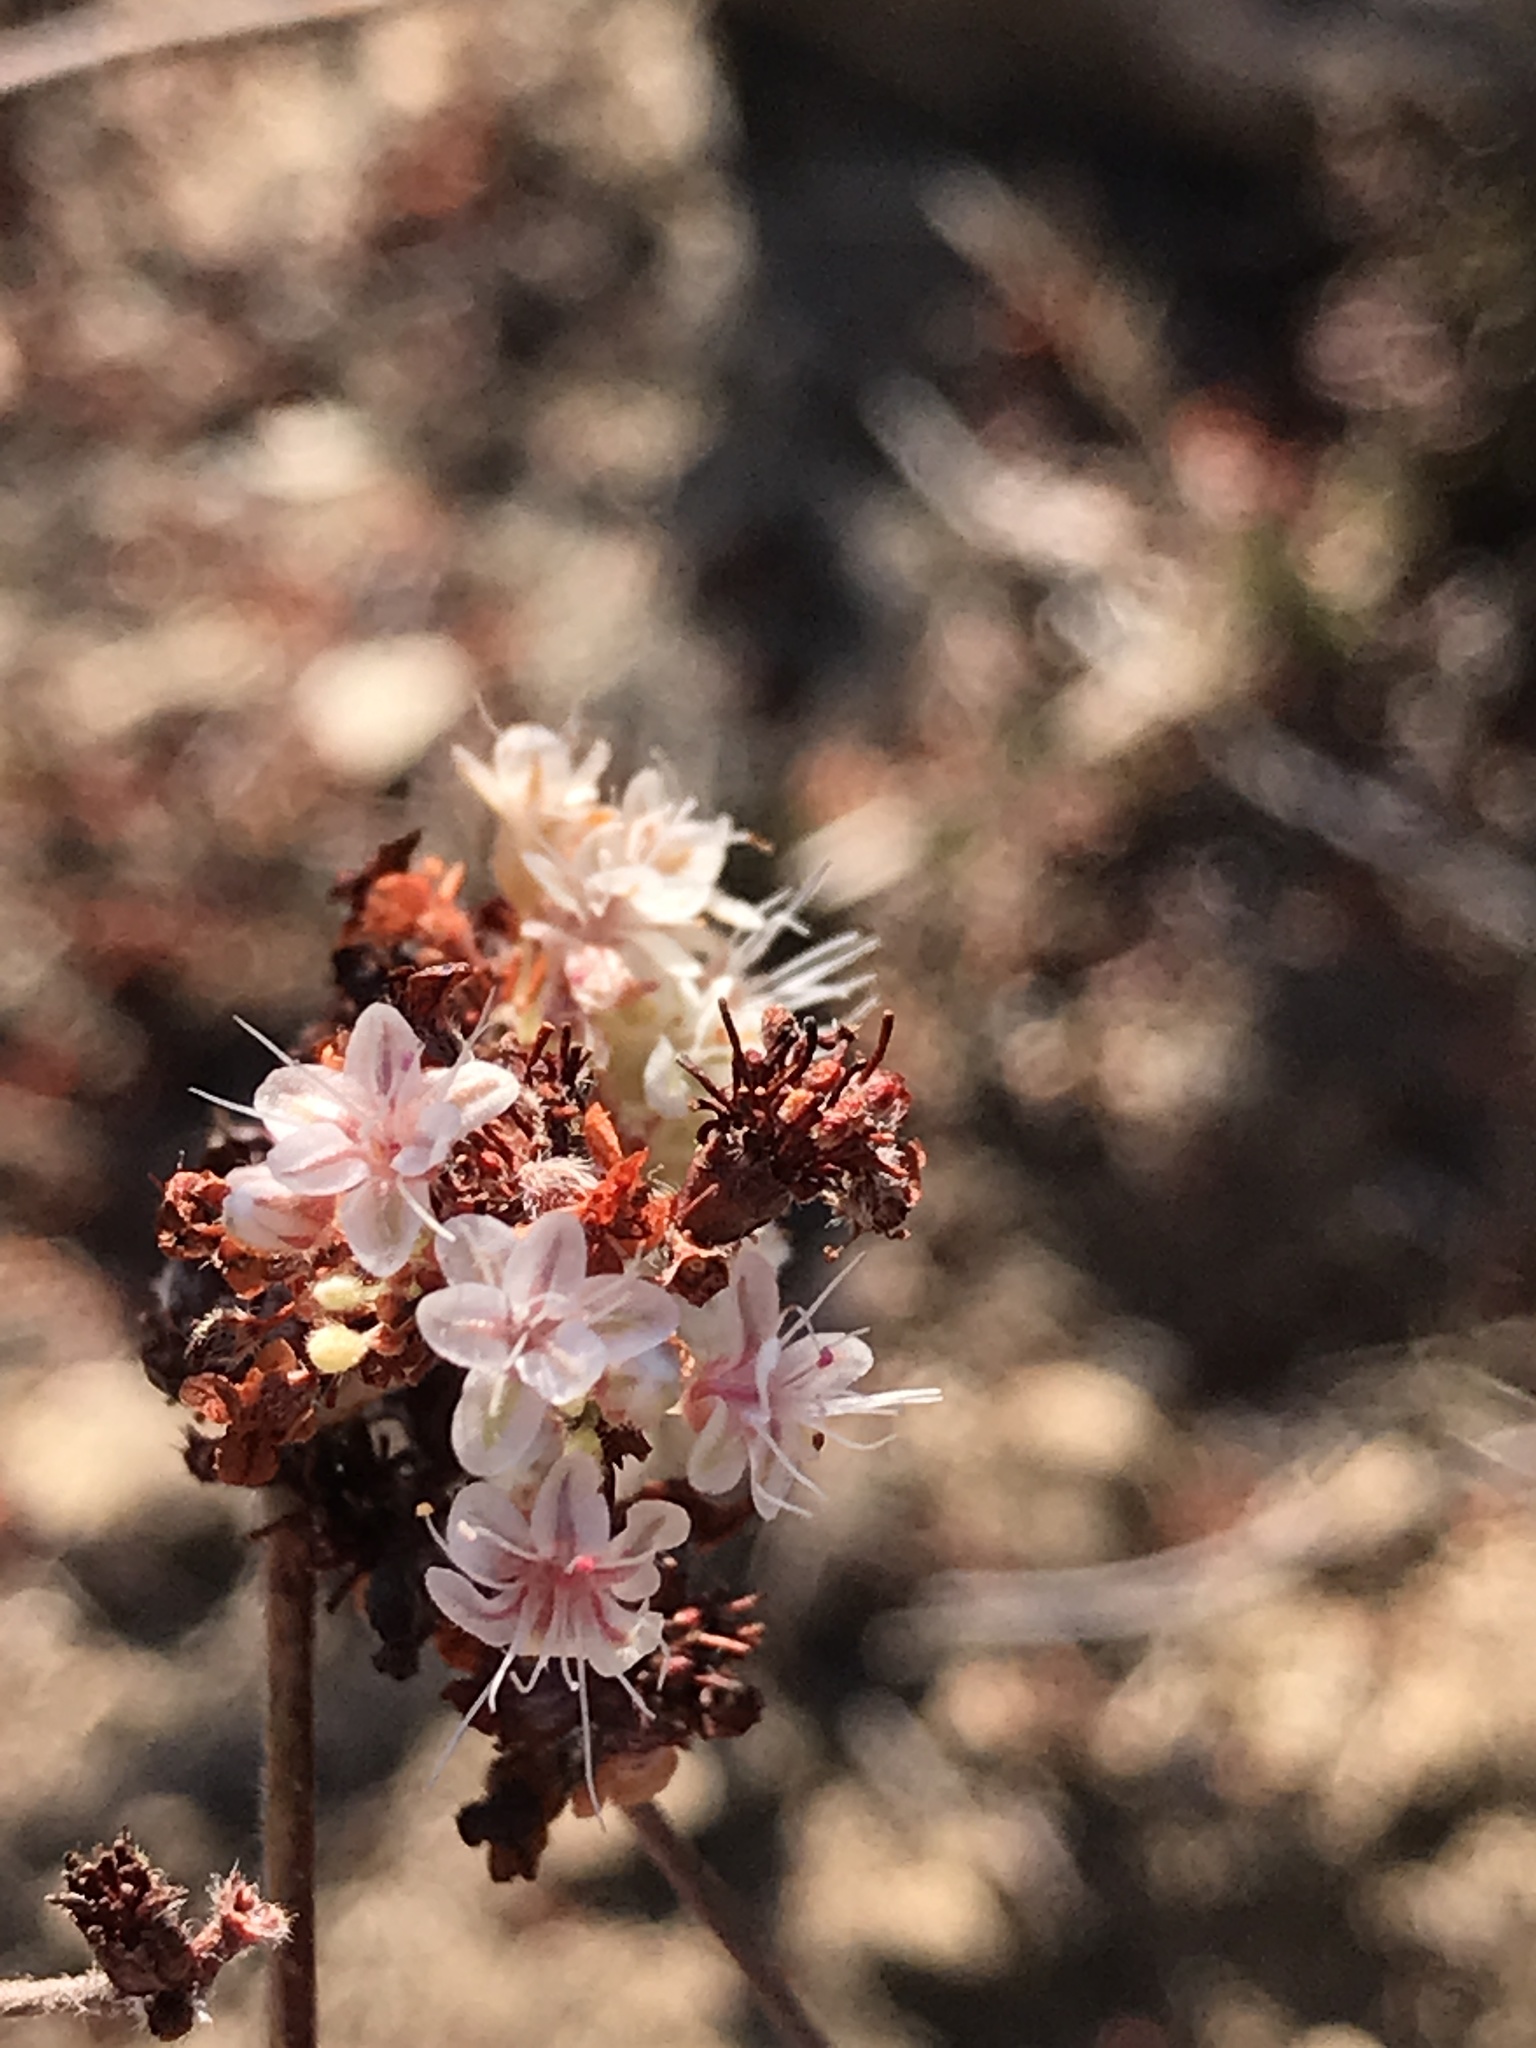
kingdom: Plantae
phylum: Tracheophyta
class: Magnoliopsida
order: Caryophyllales
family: Polygonaceae
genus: Eriogonum
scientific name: Eriogonum fasciculatum
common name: California wild buckwheat
